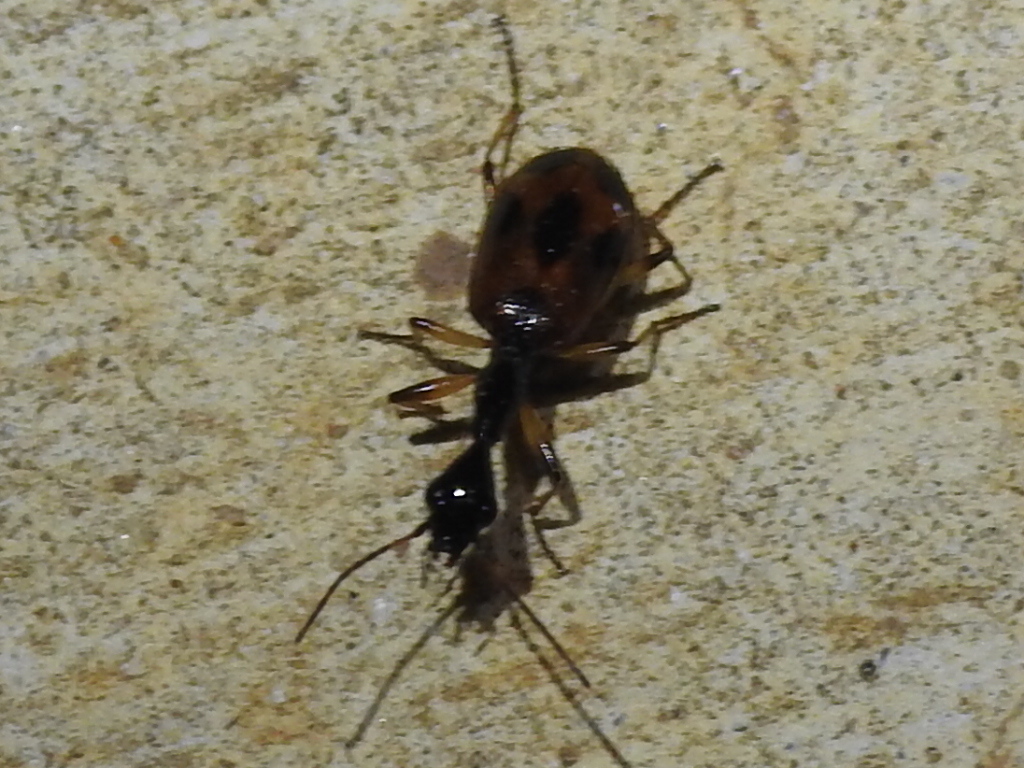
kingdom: Animalia
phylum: Arthropoda
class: Insecta
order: Coleoptera
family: Carabidae
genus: Colliuris
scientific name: Colliuris pensylvanica
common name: Long-necked ground beetle
